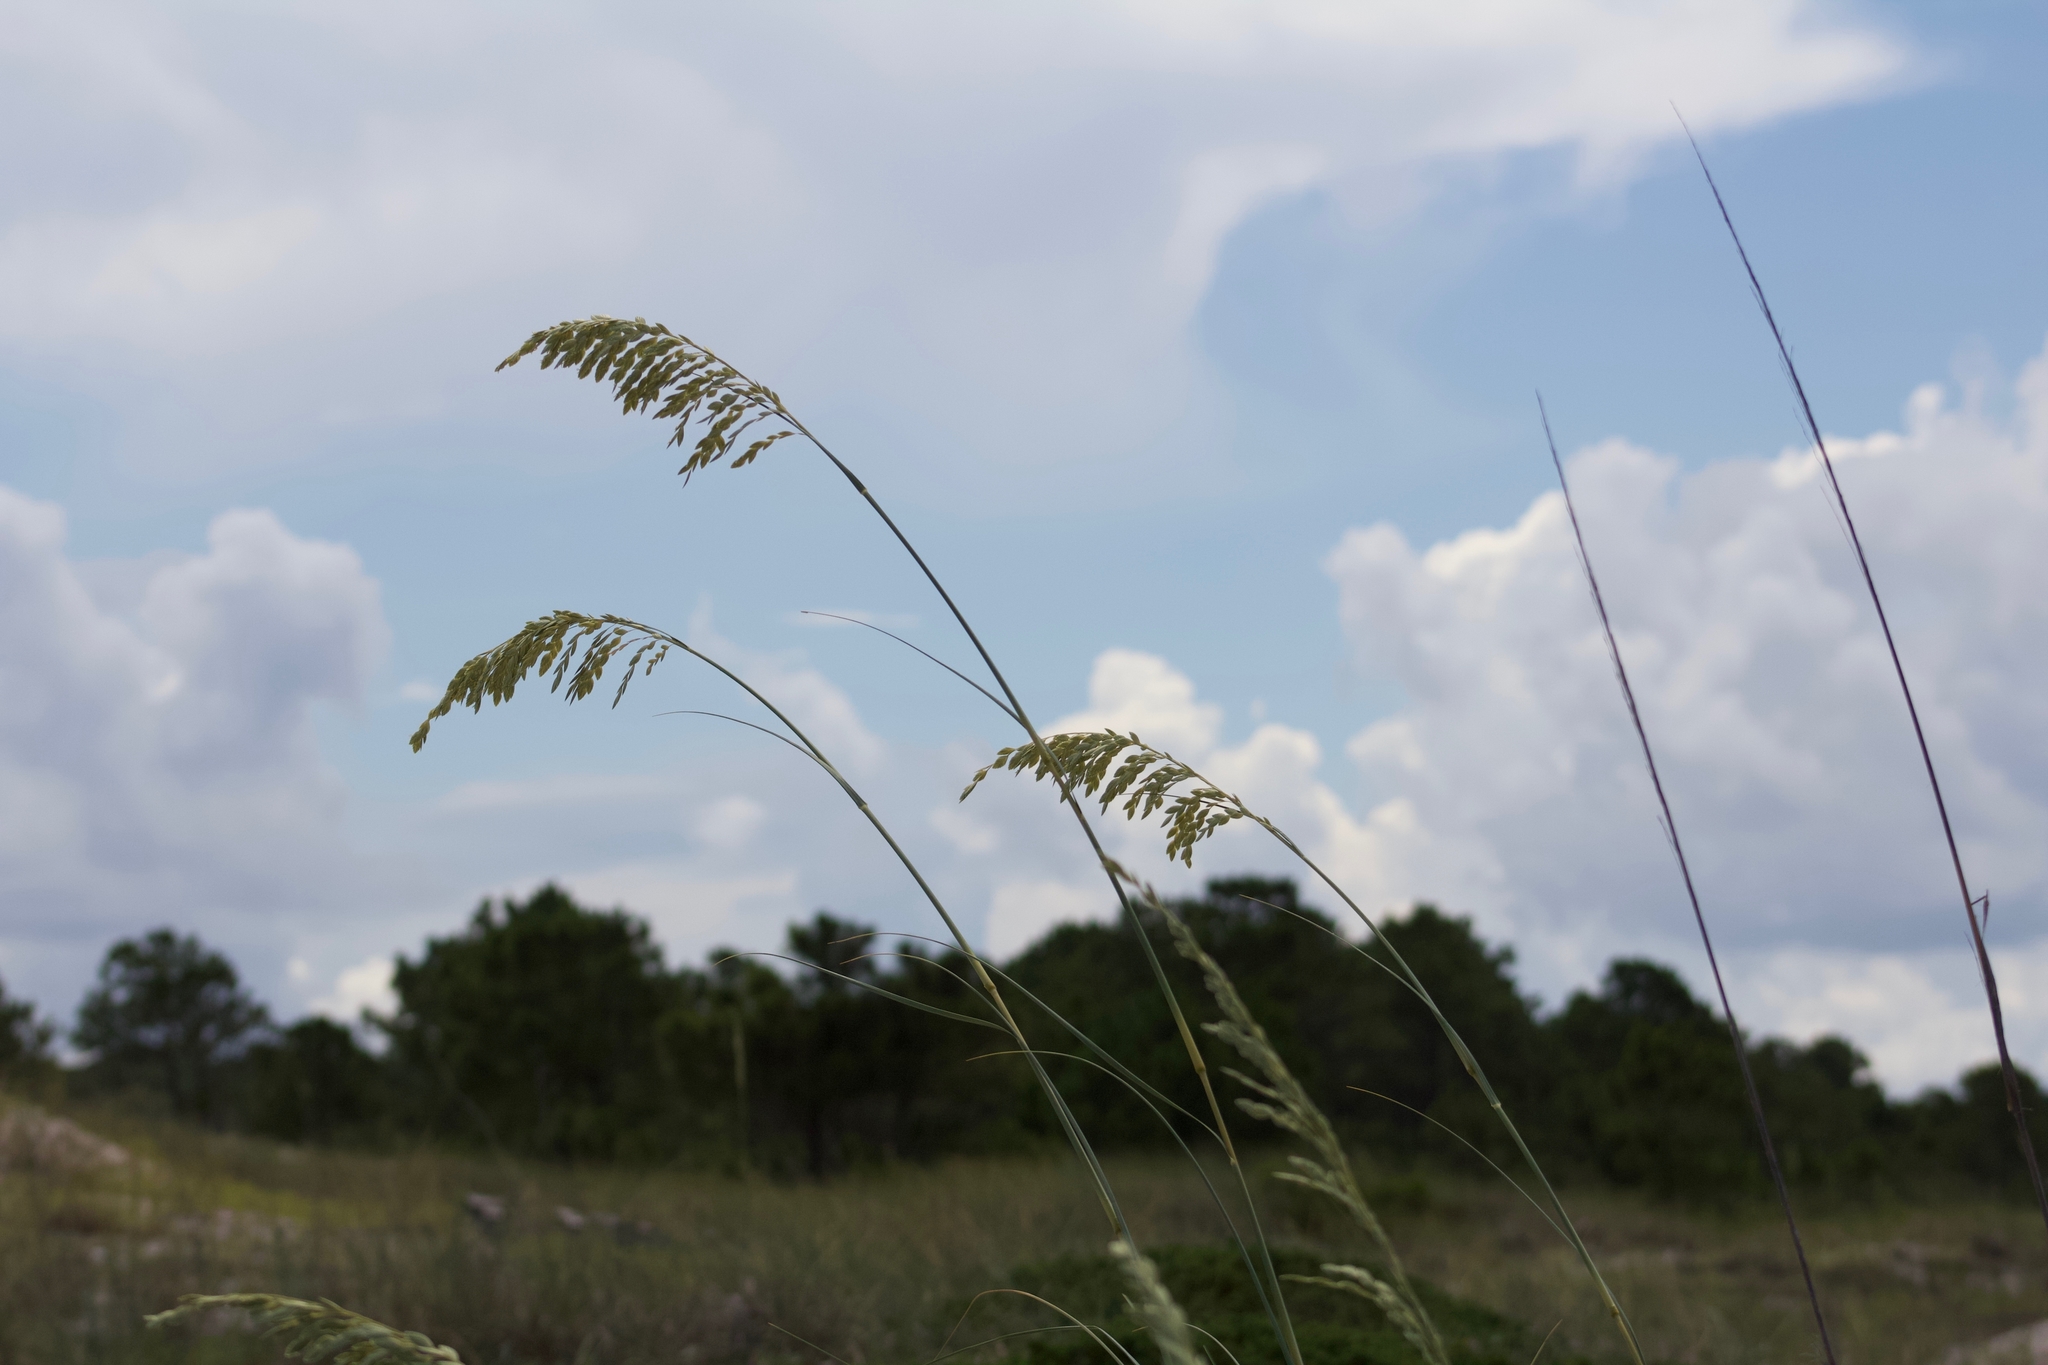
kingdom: Plantae
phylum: Tracheophyta
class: Liliopsida
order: Poales
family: Poaceae
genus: Uniola
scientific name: Uniola paniculata
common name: Seaside-oats
